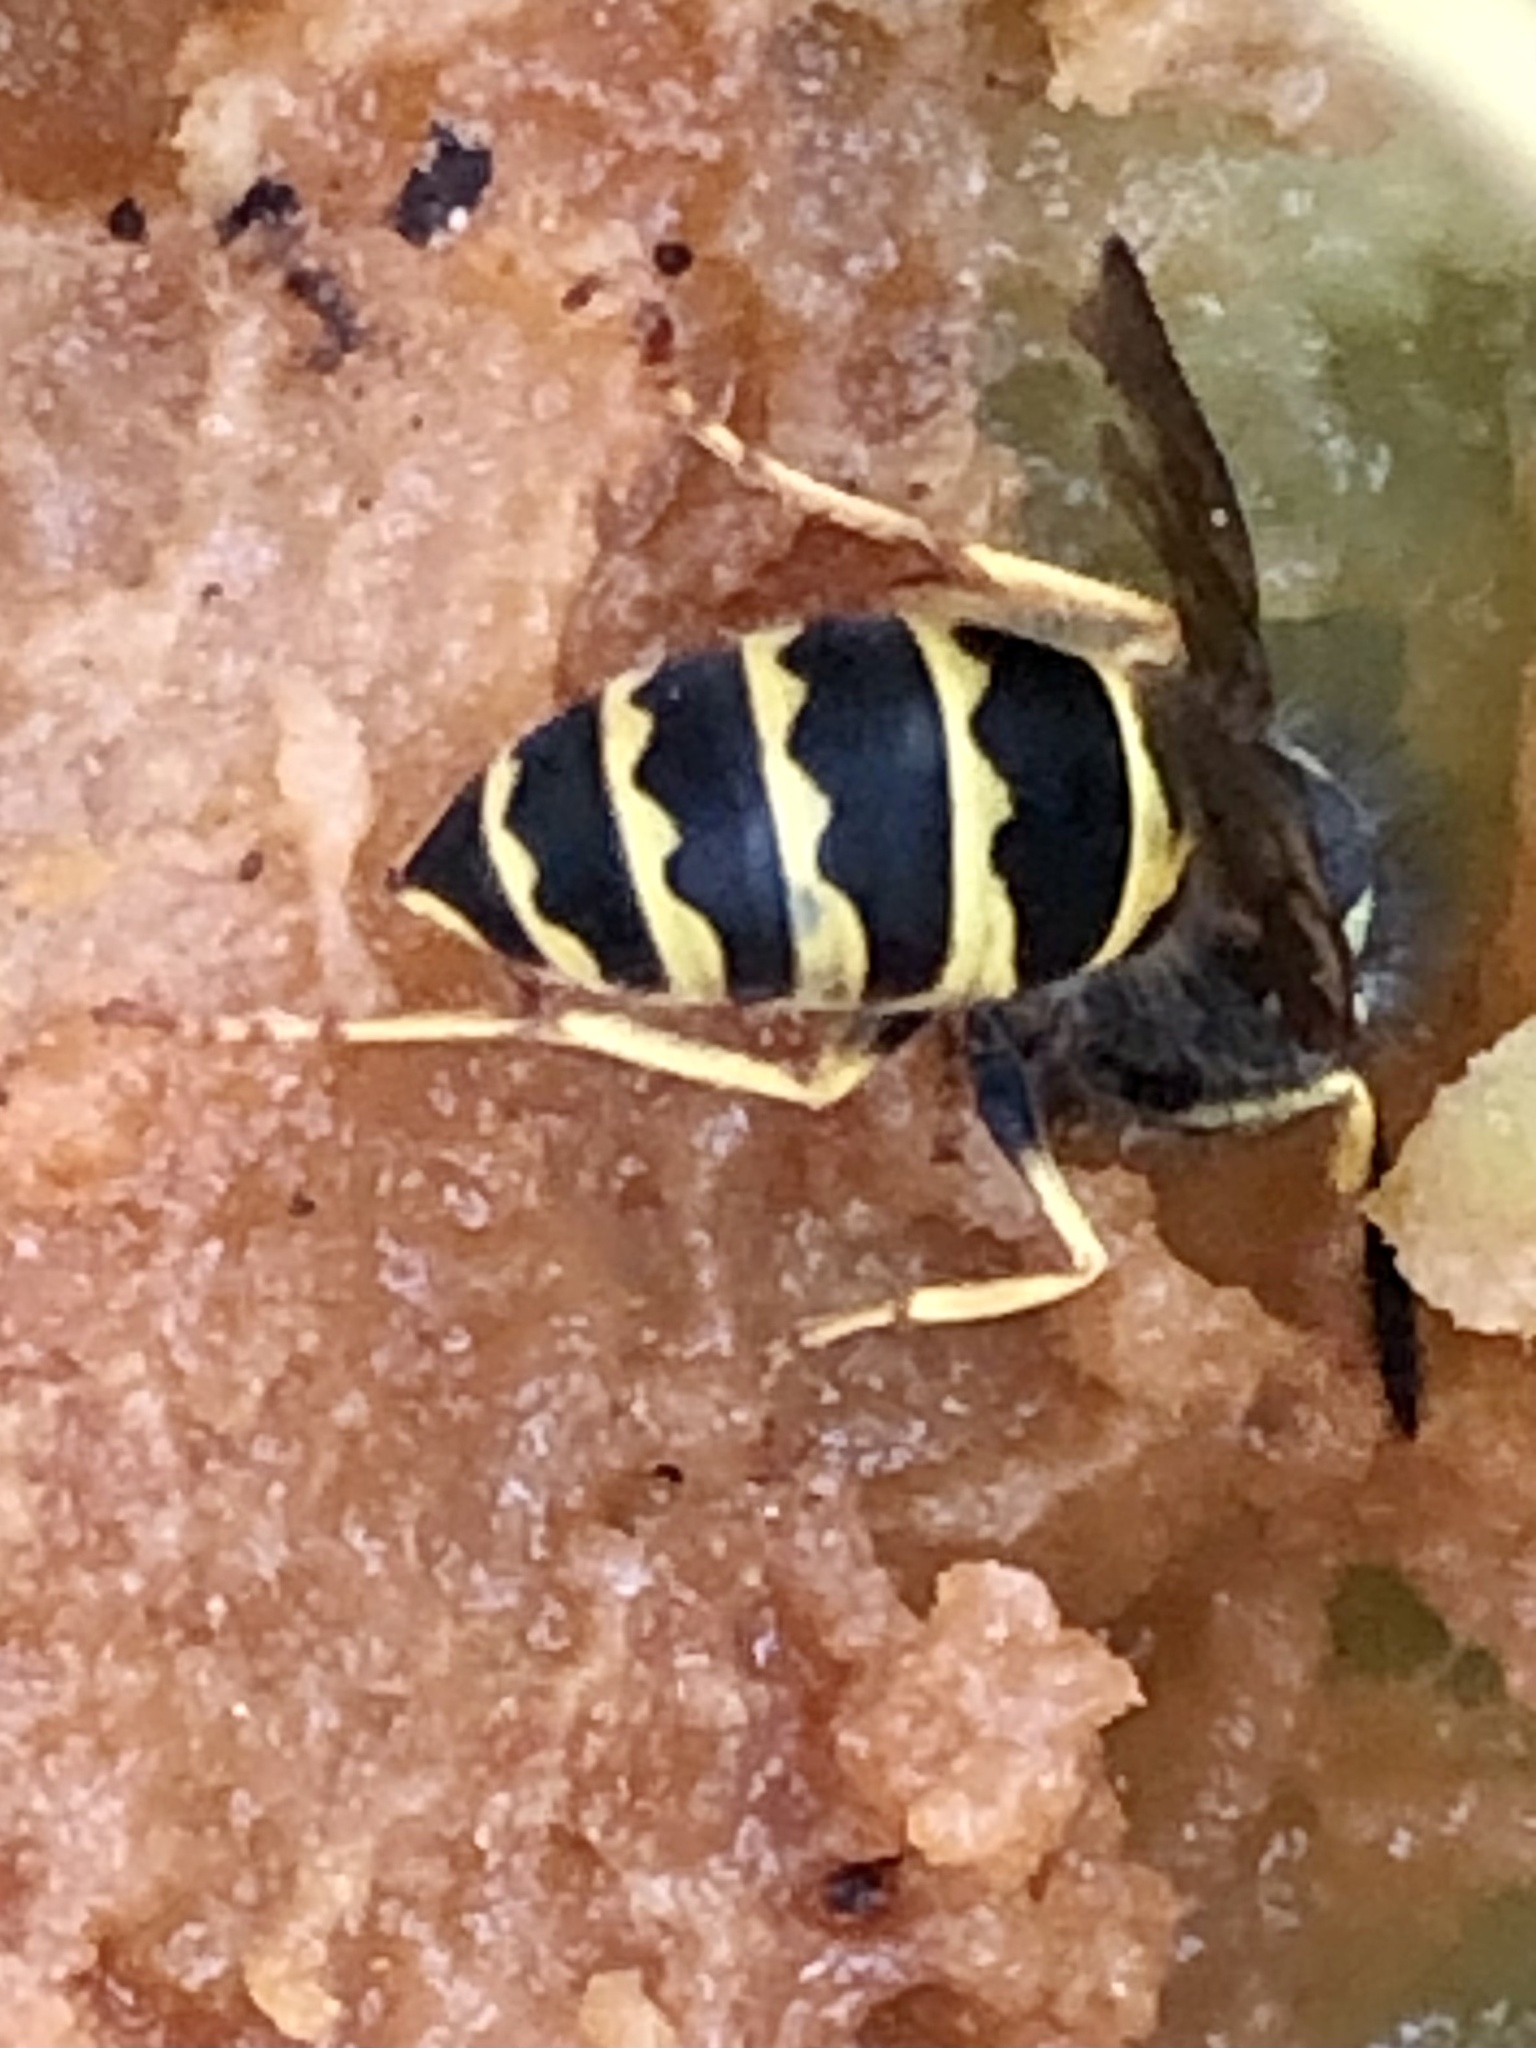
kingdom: Animalia
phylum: Arthropoda
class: Insecta
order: Hymenoptera
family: Vespidae
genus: Vespula
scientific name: Vespula alascensis
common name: Alaska yellowjacket
